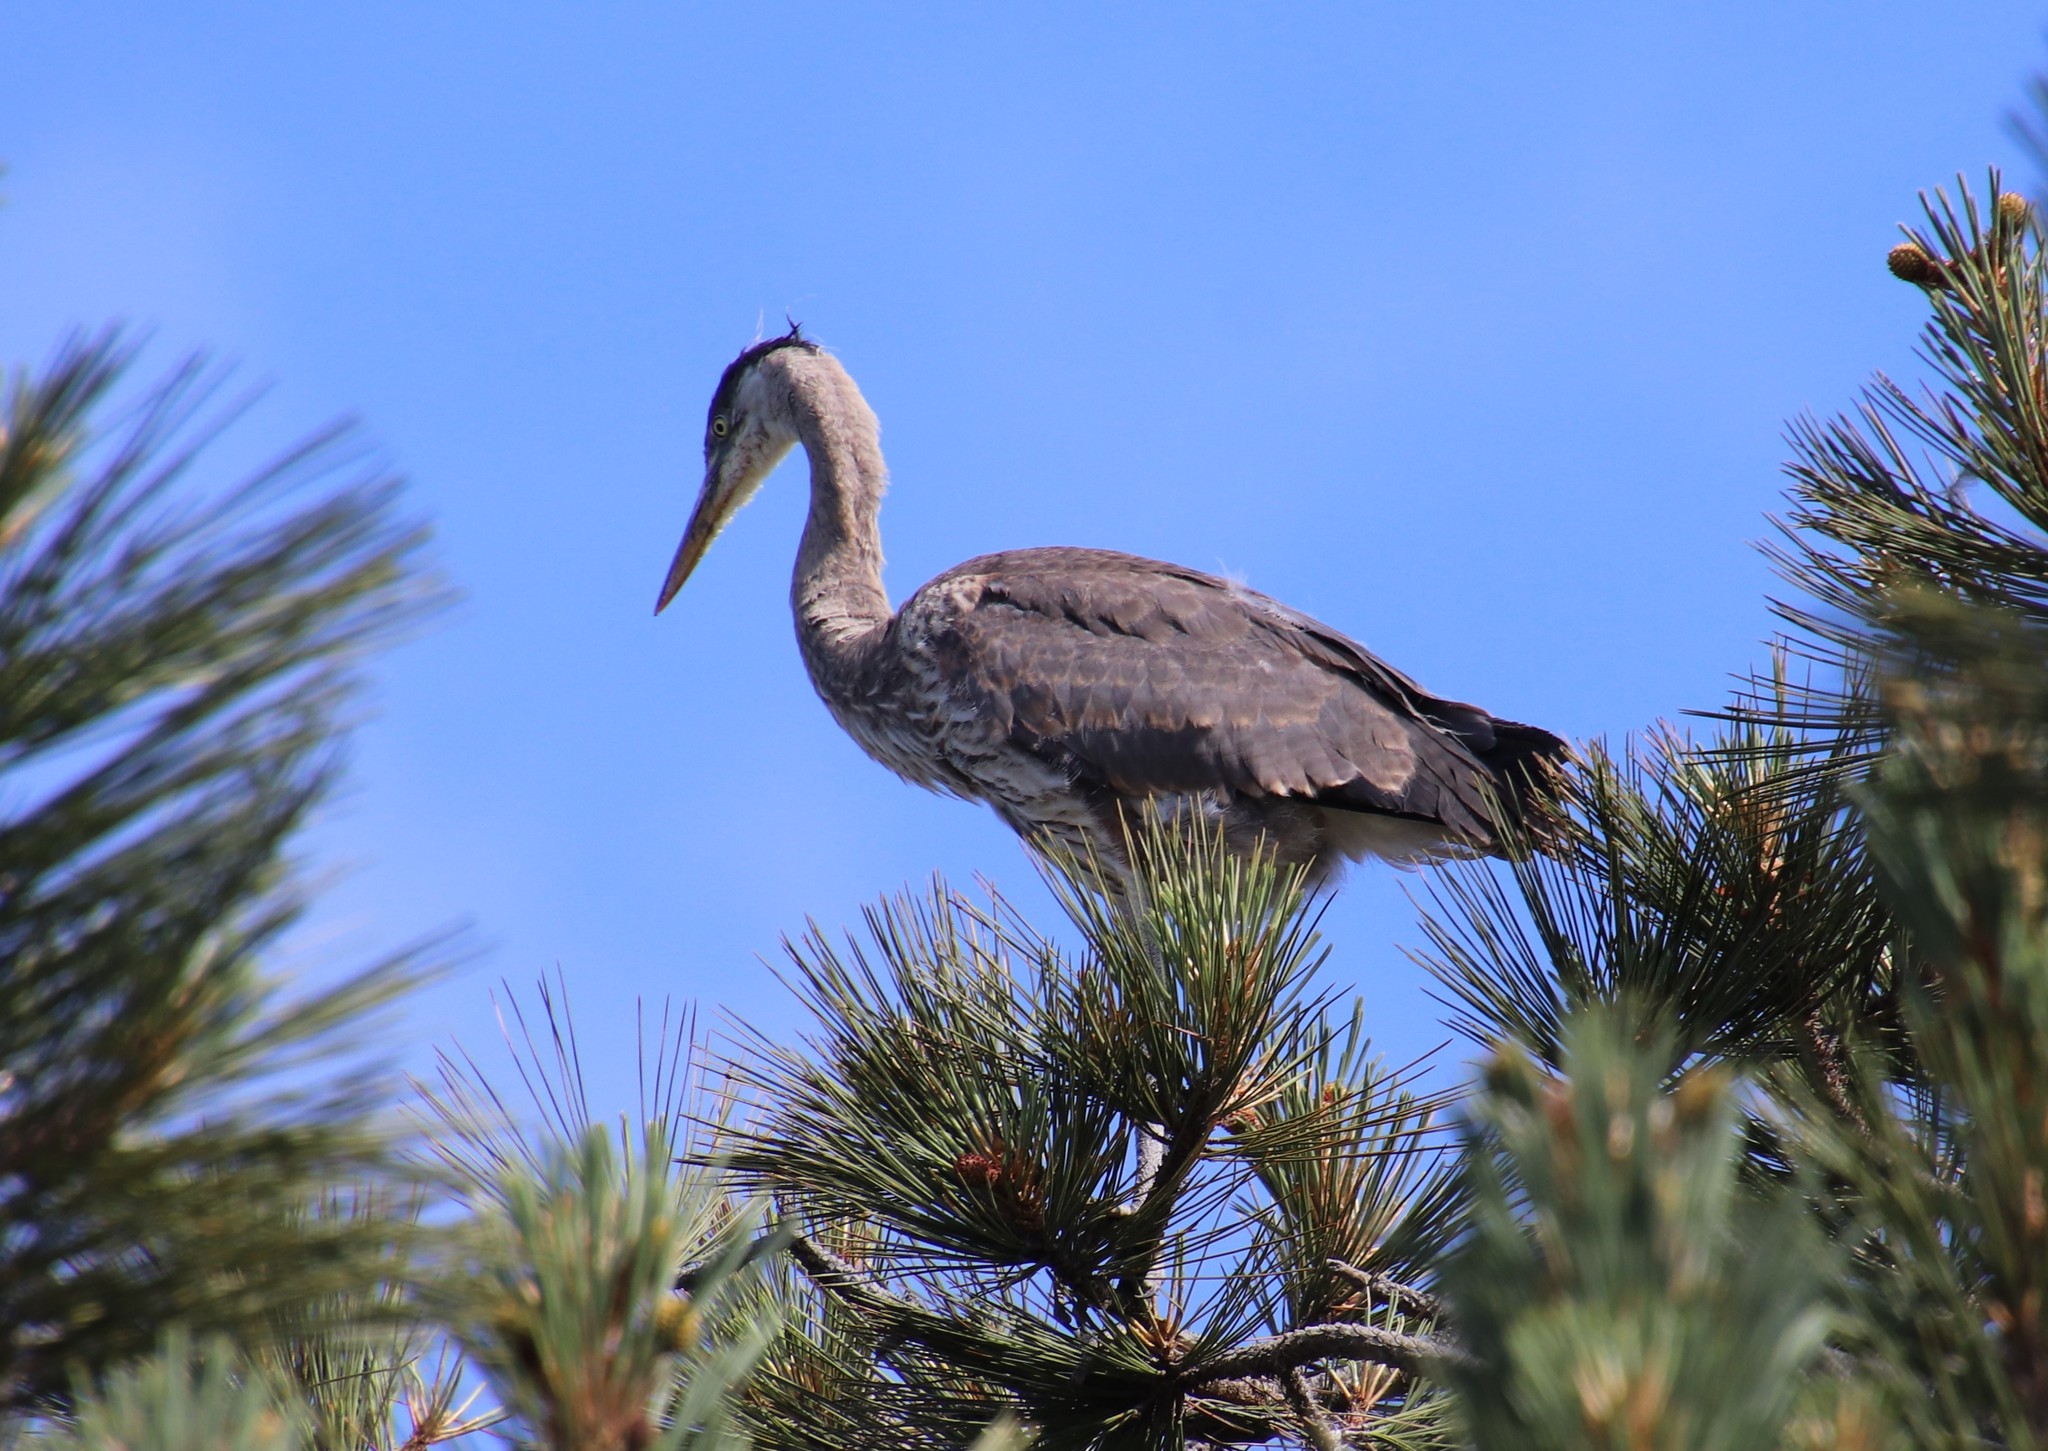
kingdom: Animalia
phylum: Chordata
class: Aves
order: Pelecaniformes
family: Ardeidae
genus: Ardea
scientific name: Ardea herodias
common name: Great blue heron
